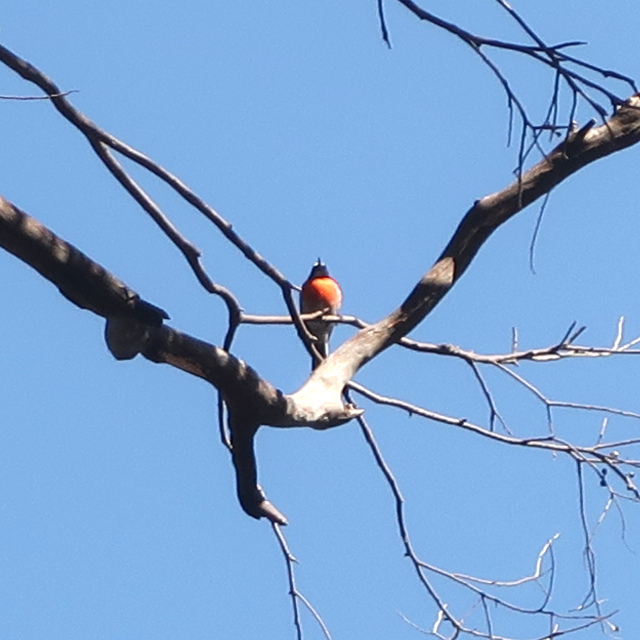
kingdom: Animalia
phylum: Chordata
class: Aves
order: Passeriformes
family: Petroicidae
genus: Petroica
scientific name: Petroica boodang
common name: Scarlet robin
